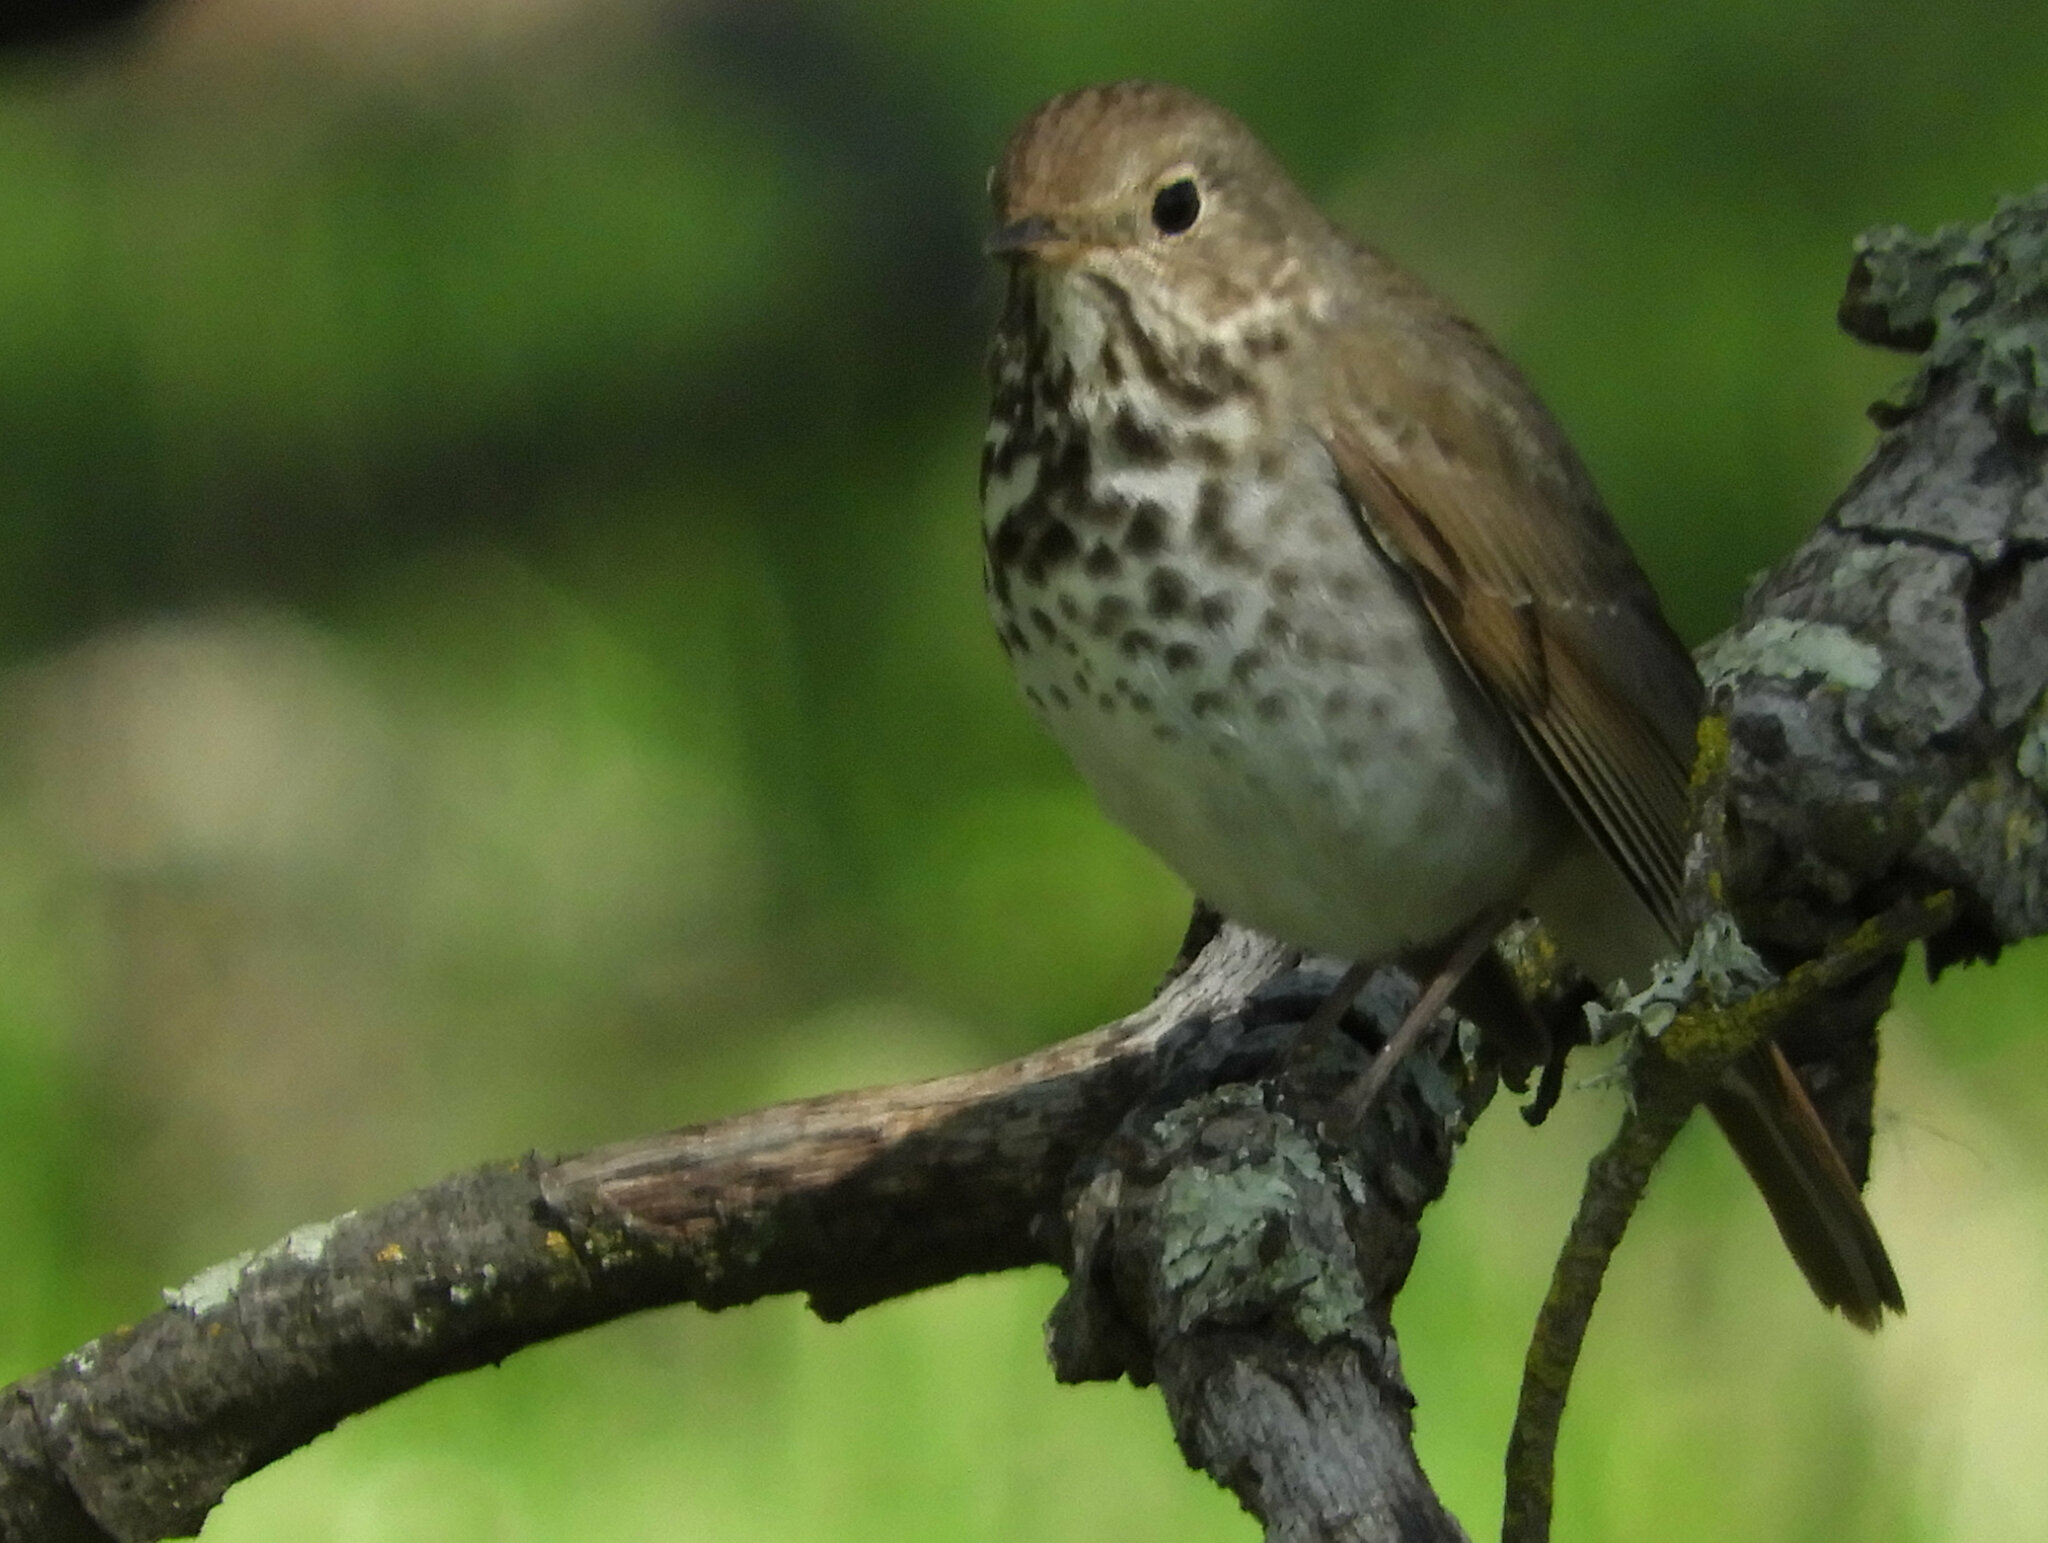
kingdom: Animalia
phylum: Chordata
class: Aves
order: Passeriformes
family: Turdidae
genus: Catharus
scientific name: Catharus guttatus
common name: Hermit thrush
